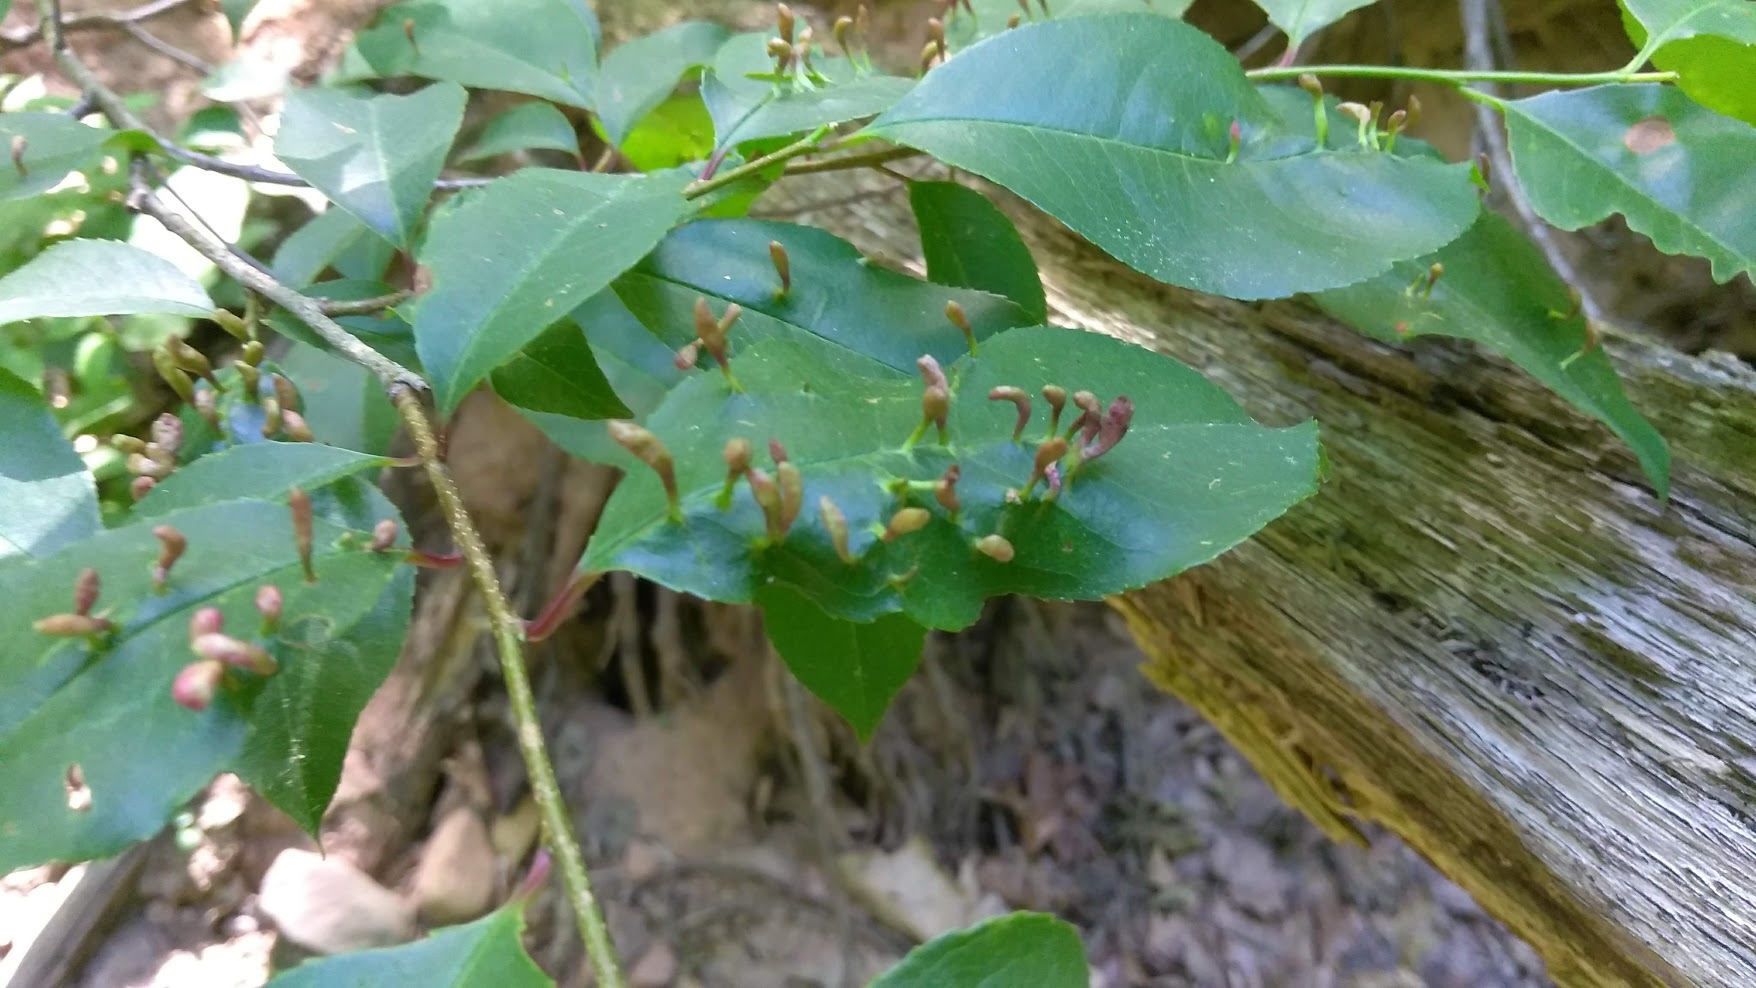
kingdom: Animalia
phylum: Arthropoda
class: Arachnida
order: Trombidiformes
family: Eriophyidae
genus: Eriophyes
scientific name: Eriophyes
